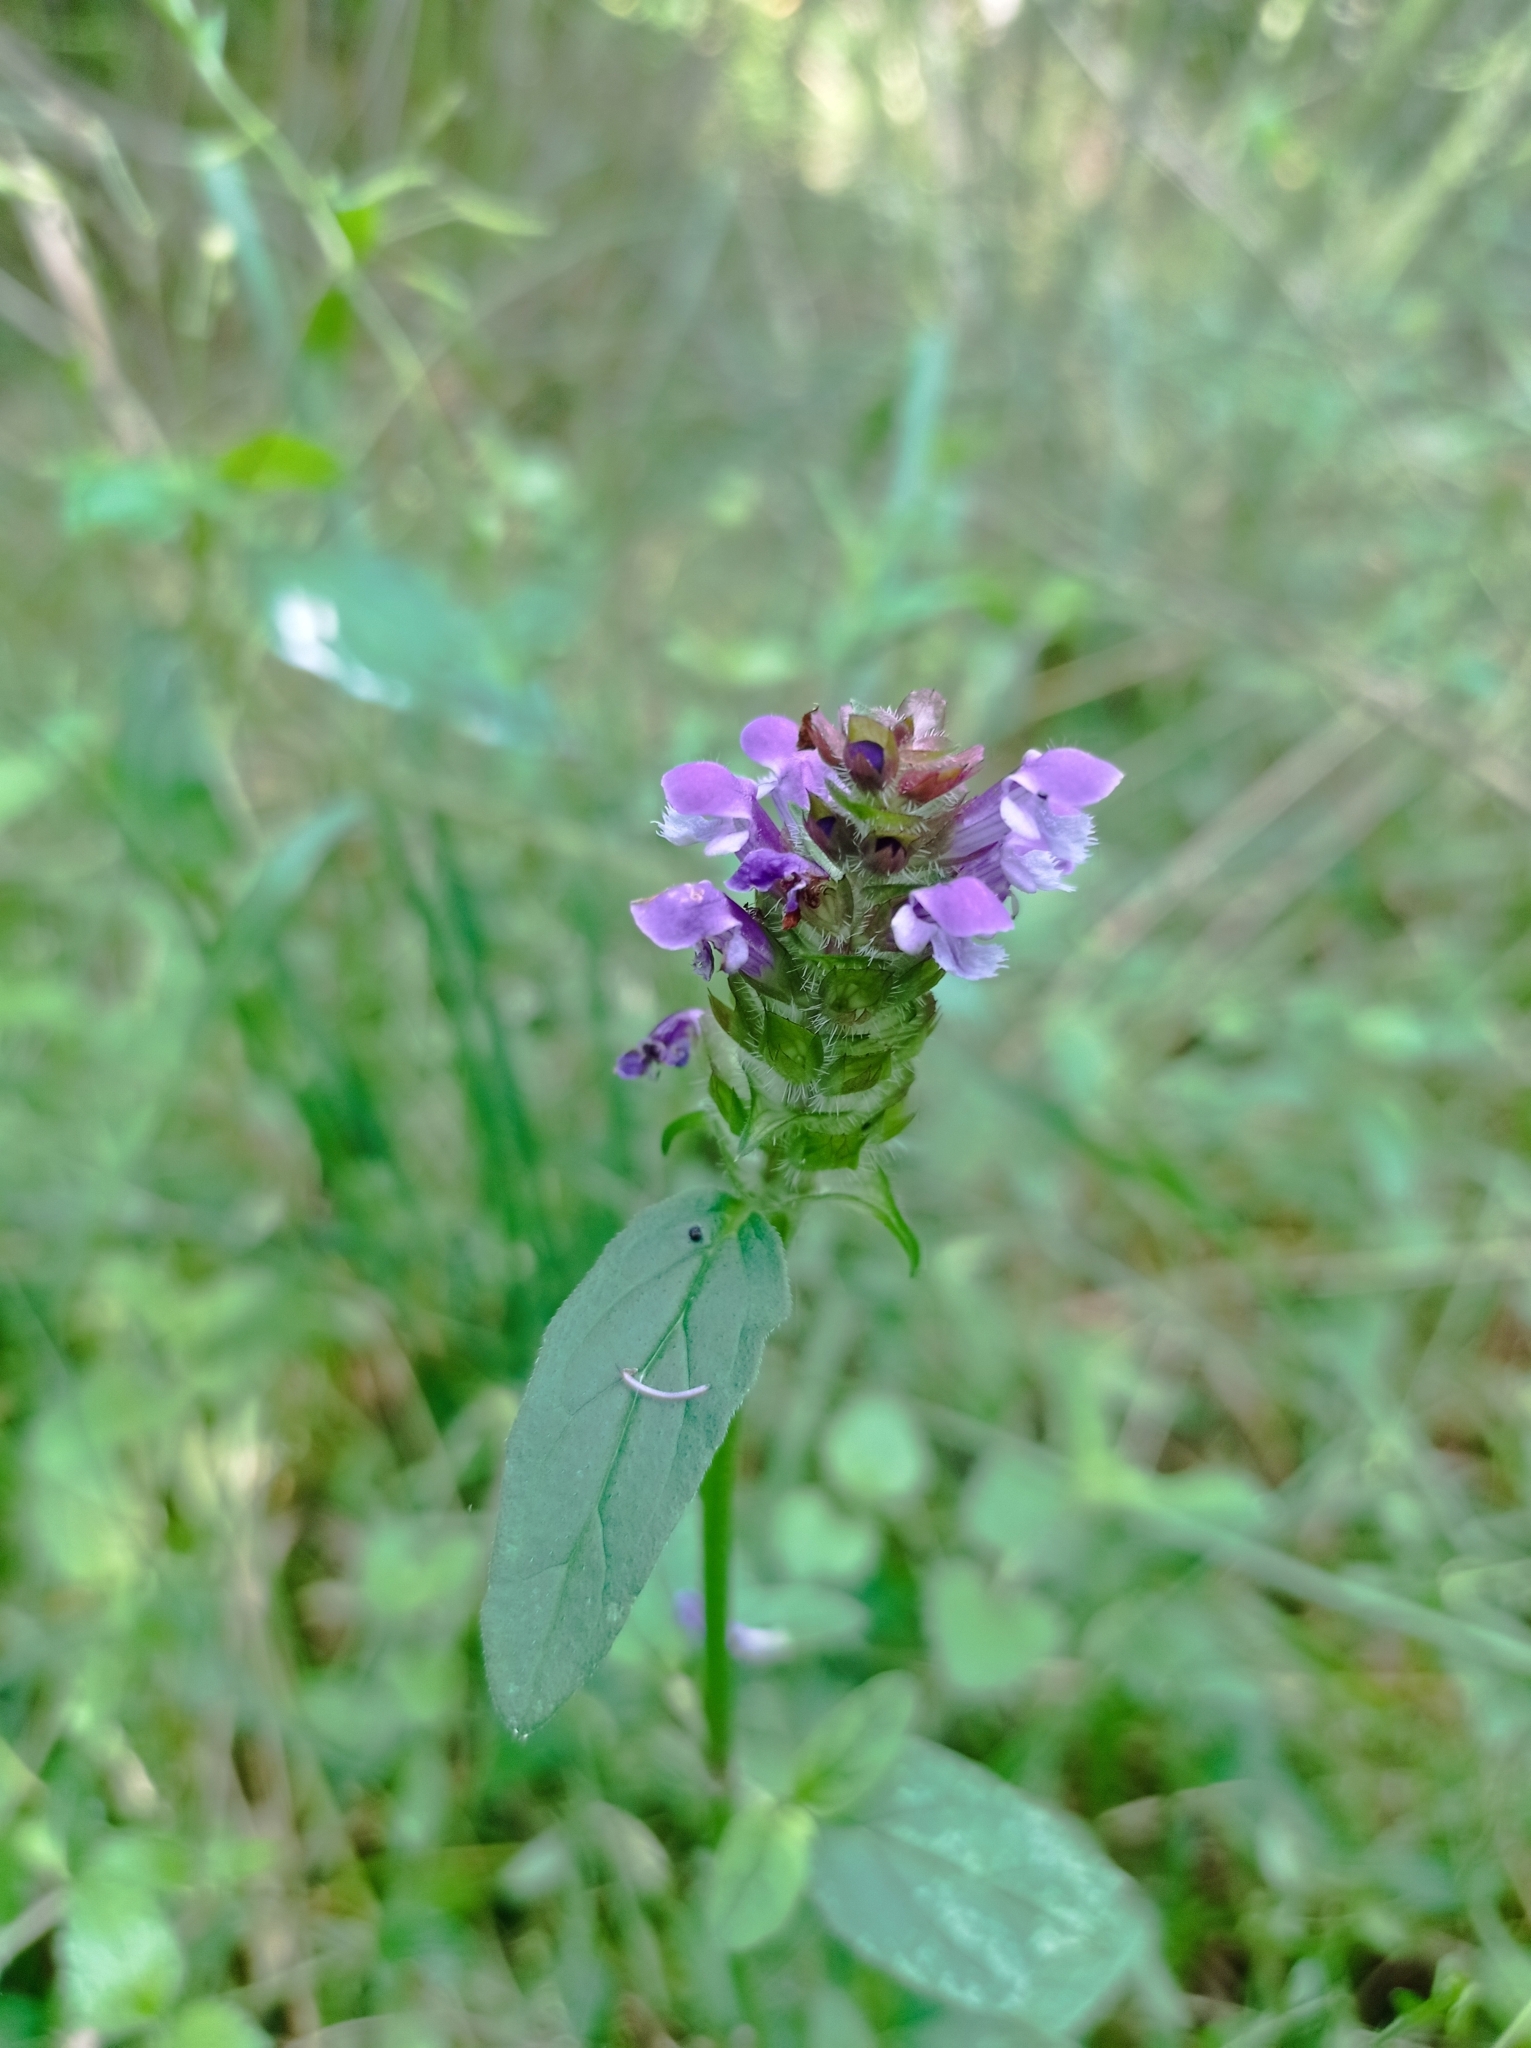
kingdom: Plantae
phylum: Tracheophyta
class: Magnoliopsida
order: Lamiales
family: Lamiaceae
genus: Prunella
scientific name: Prunella vulgaris
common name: Heal-all
